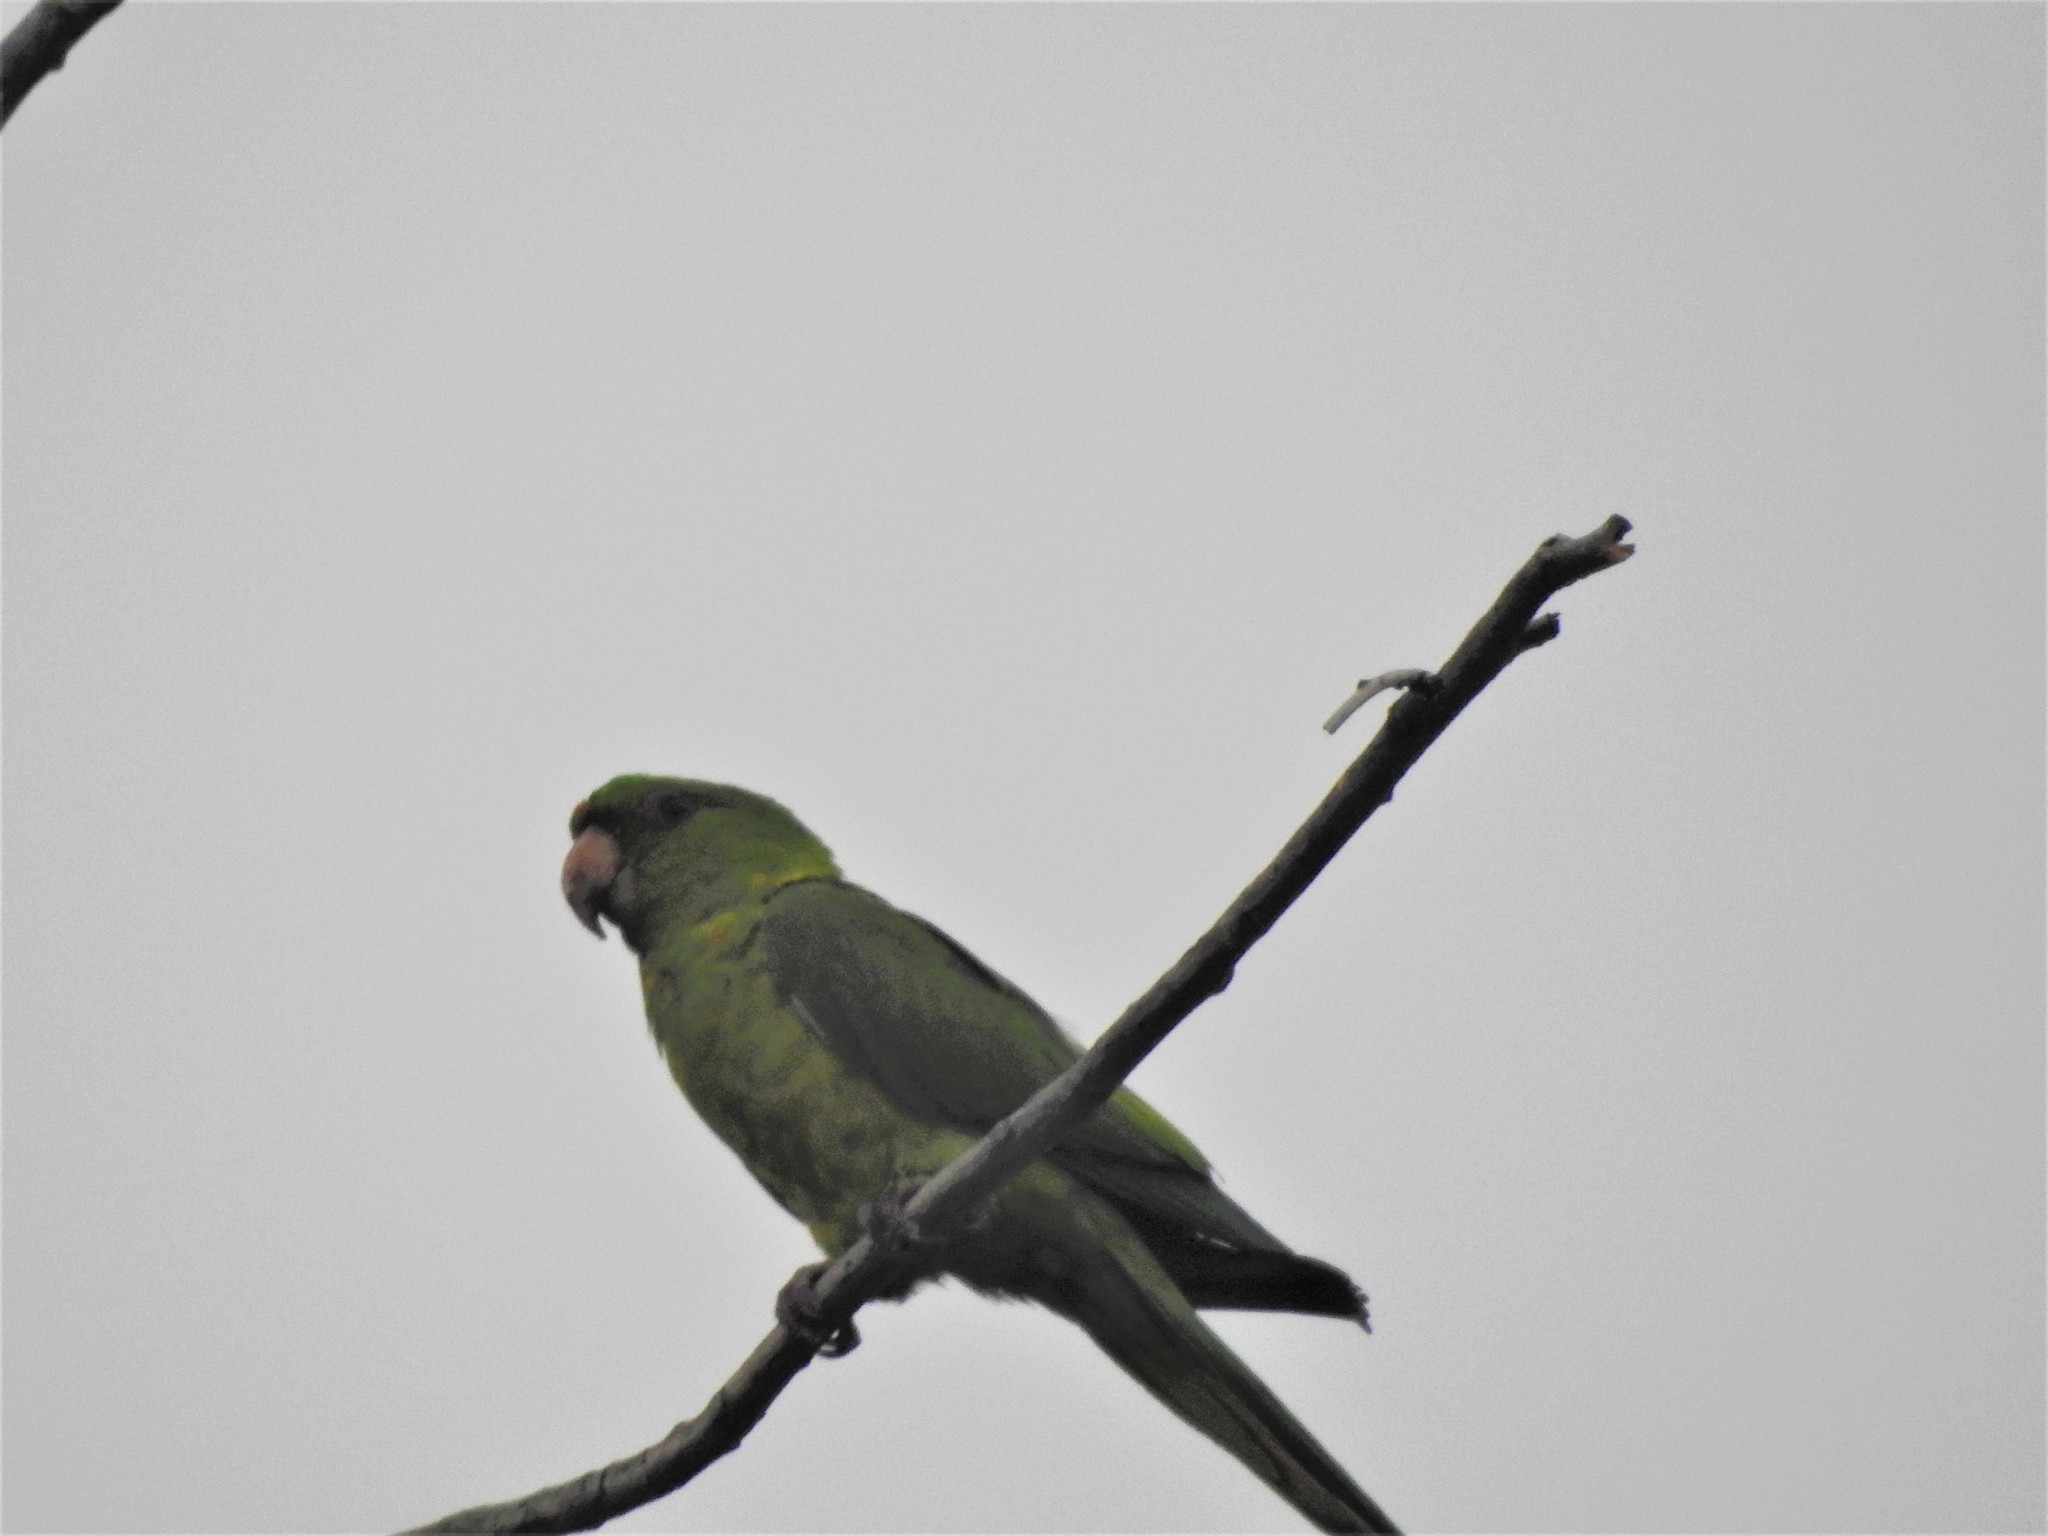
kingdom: Animalia
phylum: Chordata
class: Aves
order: Psittaciformes
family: Psittacidae
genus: Aratinga
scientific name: Aratinga holochlora
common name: Green parakeet
